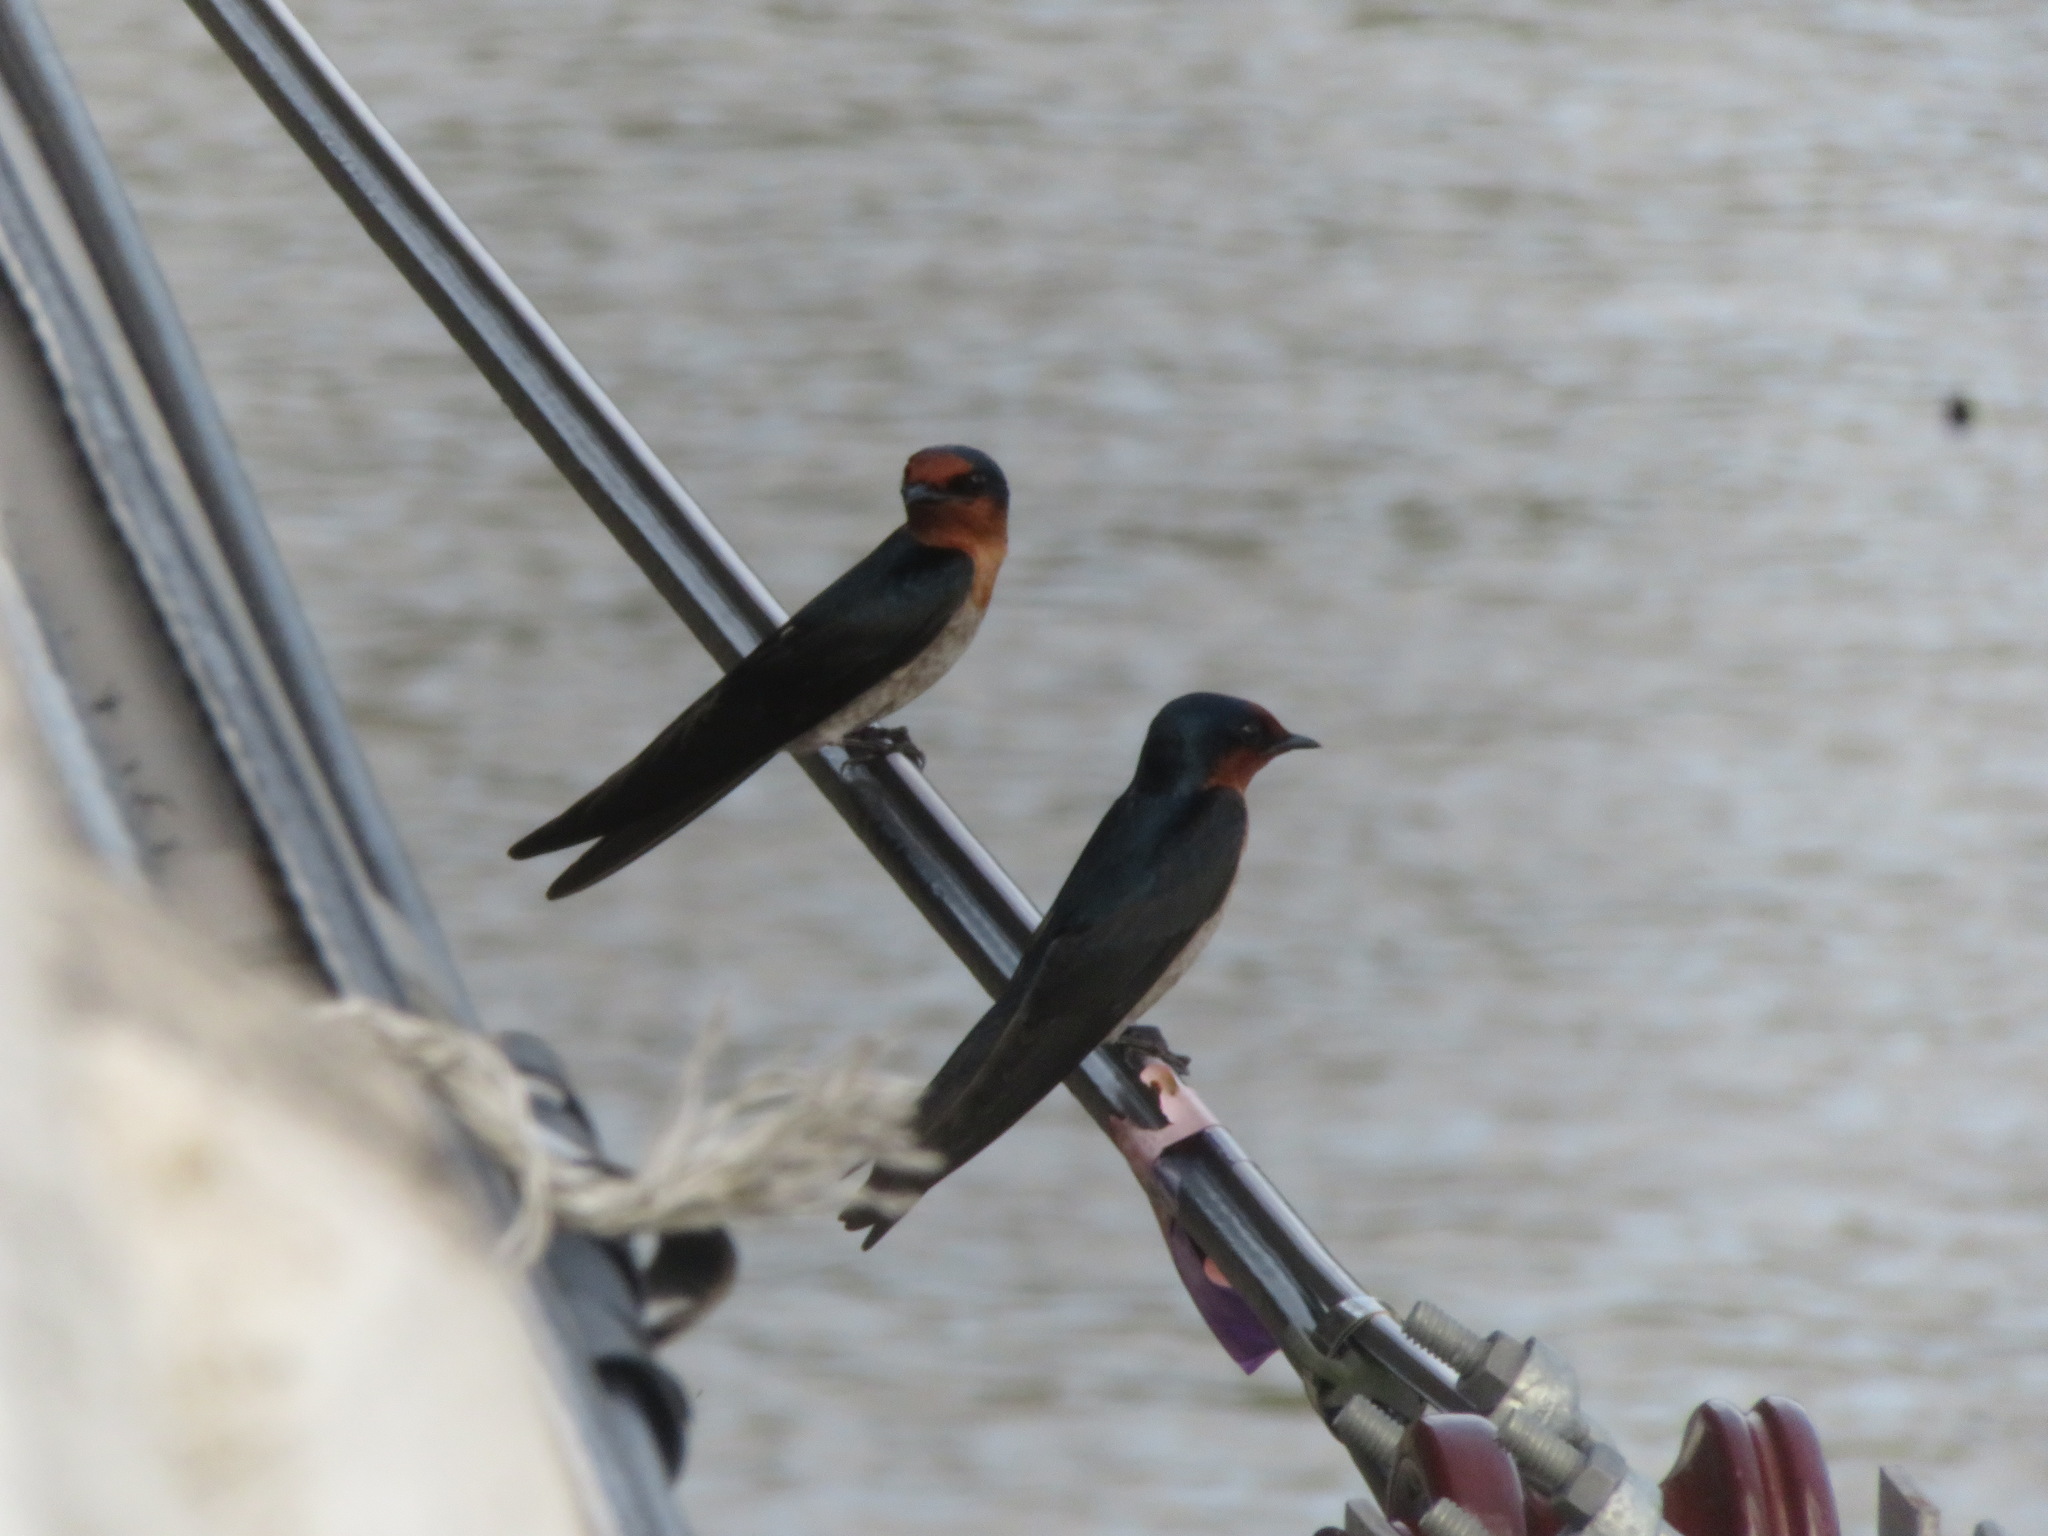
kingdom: Animalia
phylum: Chordata
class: Aves
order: Passeriformes
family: Hirundinidae
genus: Hirundo
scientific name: Hirundo tahitica
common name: Pacific swallow
